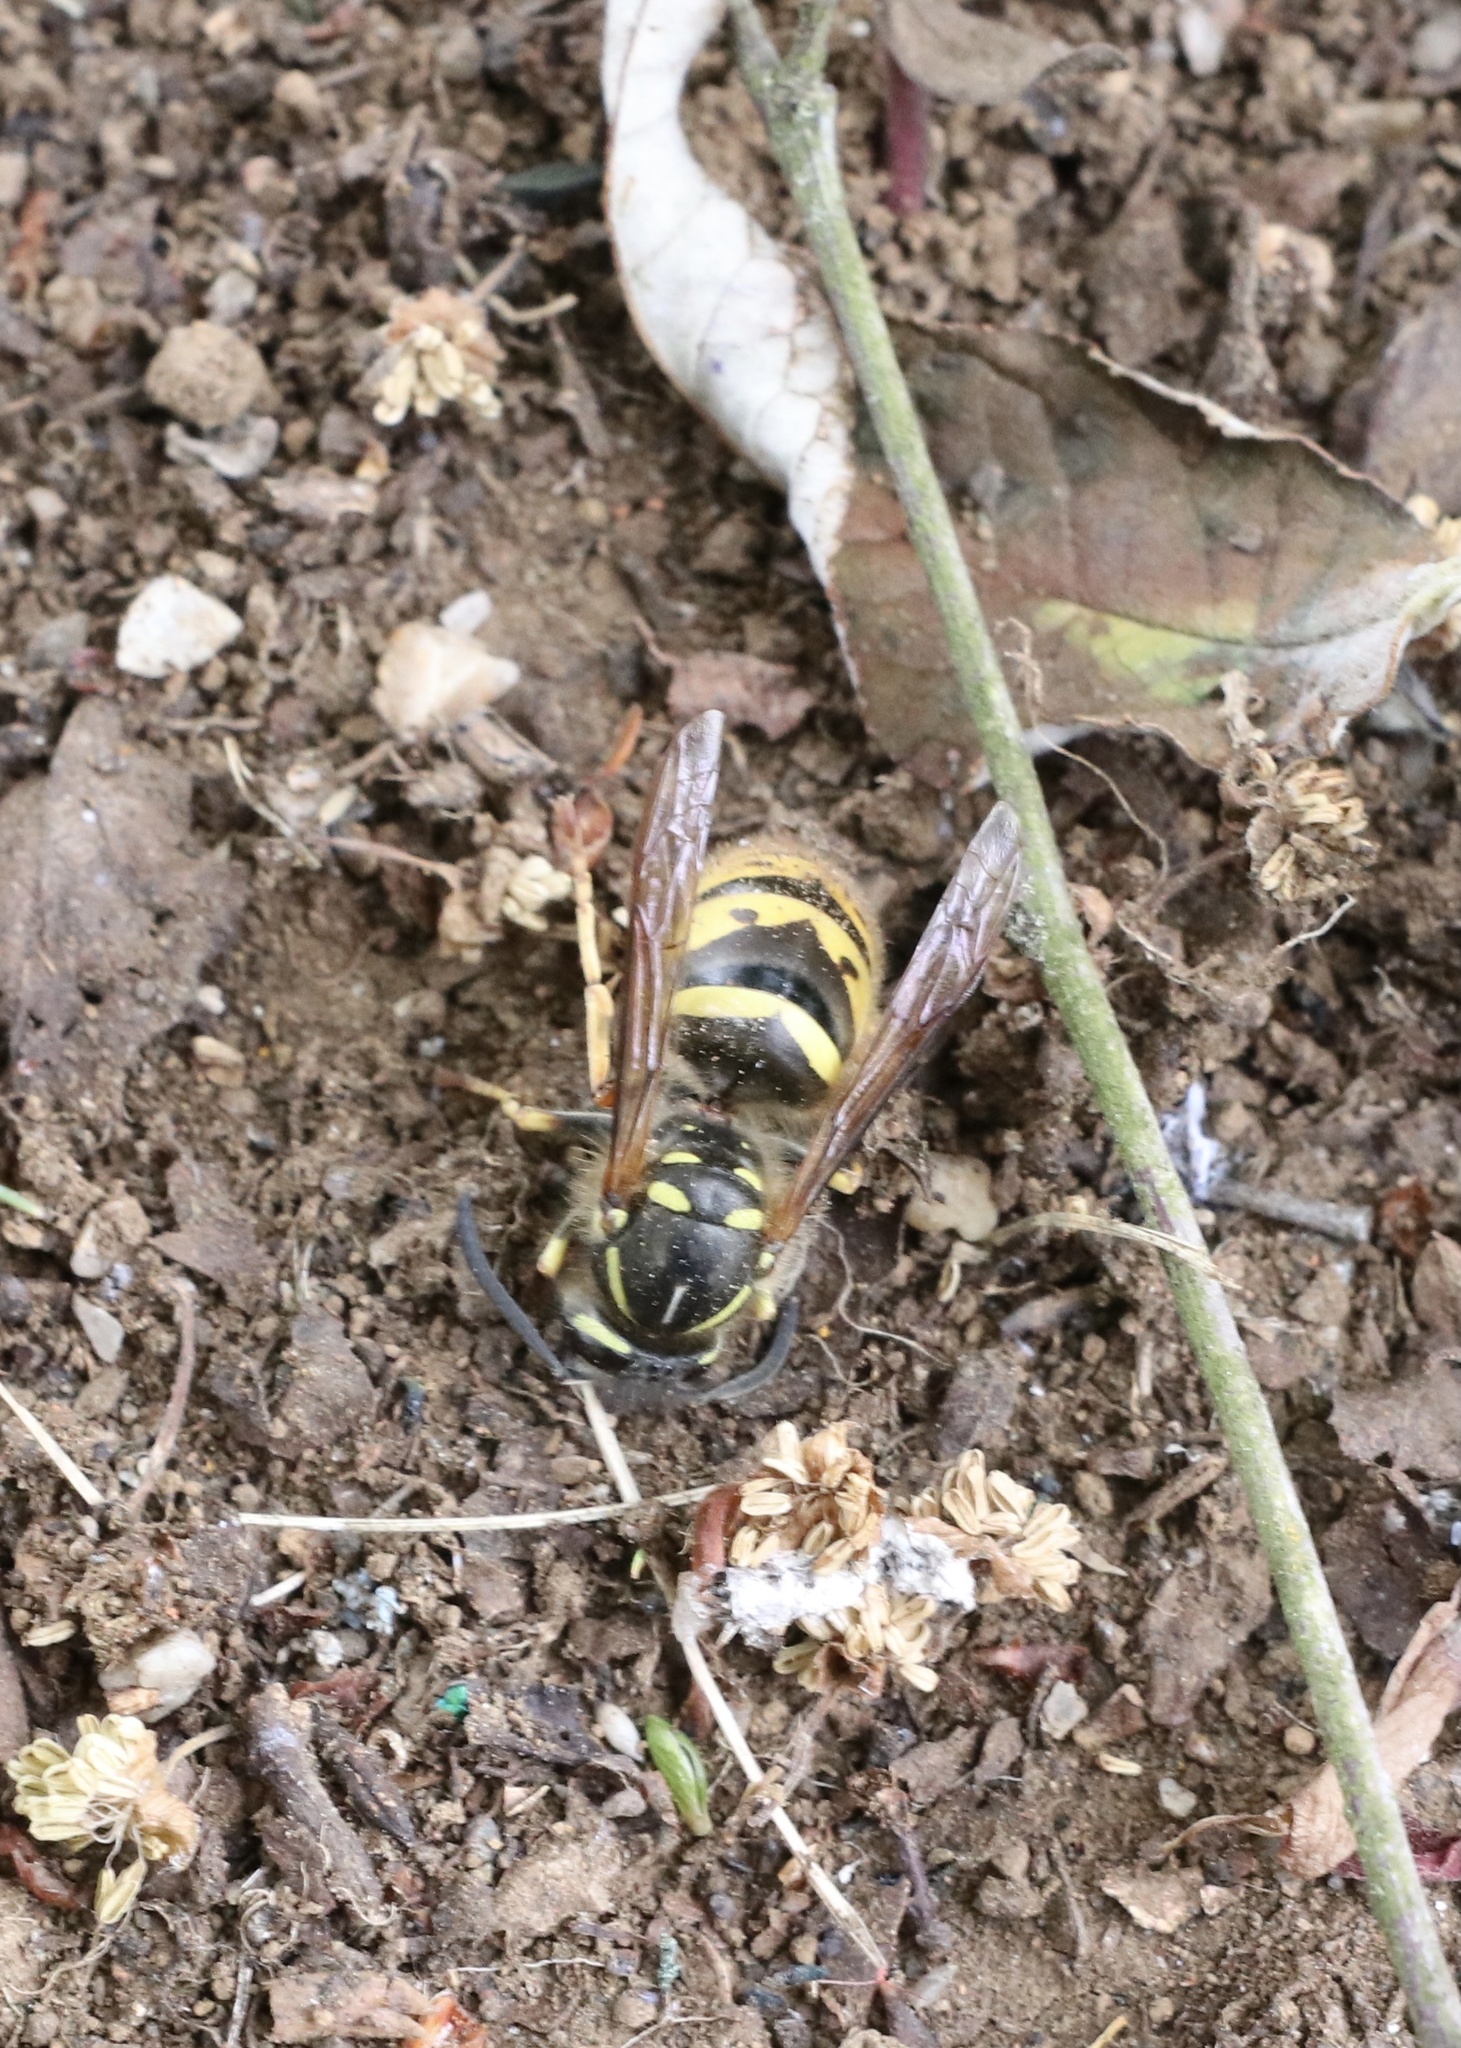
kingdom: Animalia
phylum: Arthropoda
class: Insecta
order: Hymenoptera
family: Vespidae
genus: Vespula
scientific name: Vespula vulgaris
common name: Common wasp
